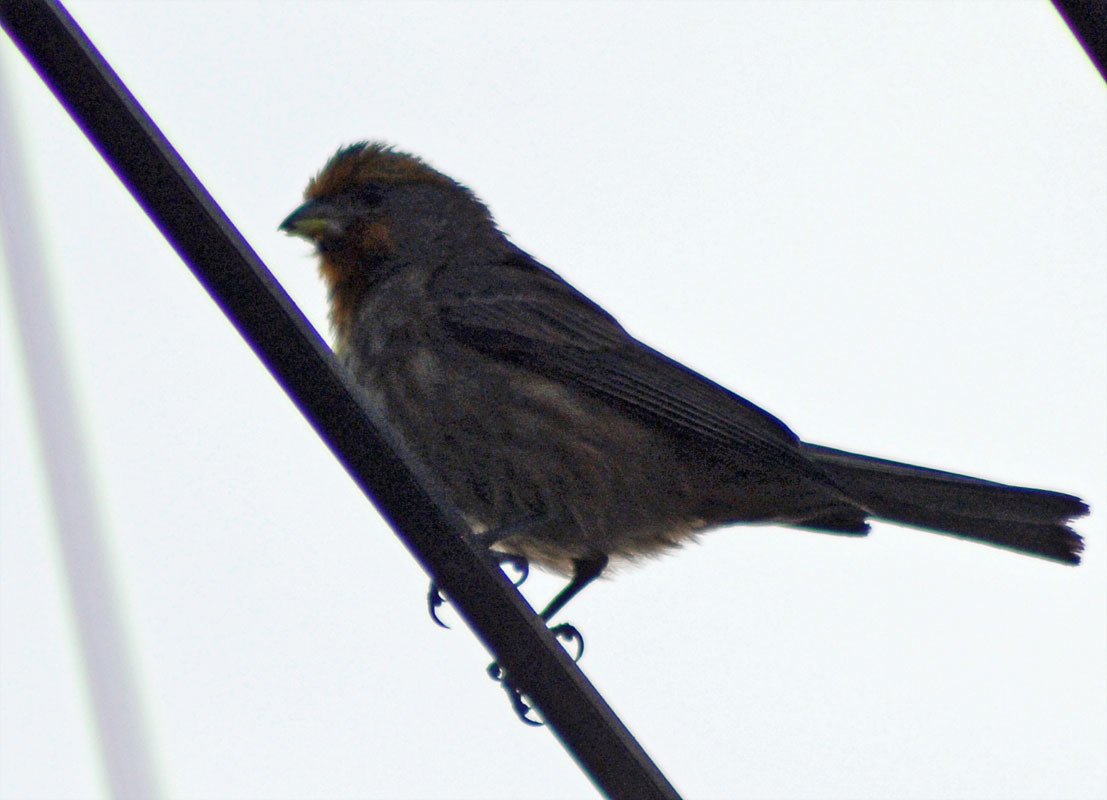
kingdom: Animalia
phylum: Chordata
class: Aves
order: Passeriformes
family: Fringillidae
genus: Haemorhous
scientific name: Haemorhous mexicanus
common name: House finch
